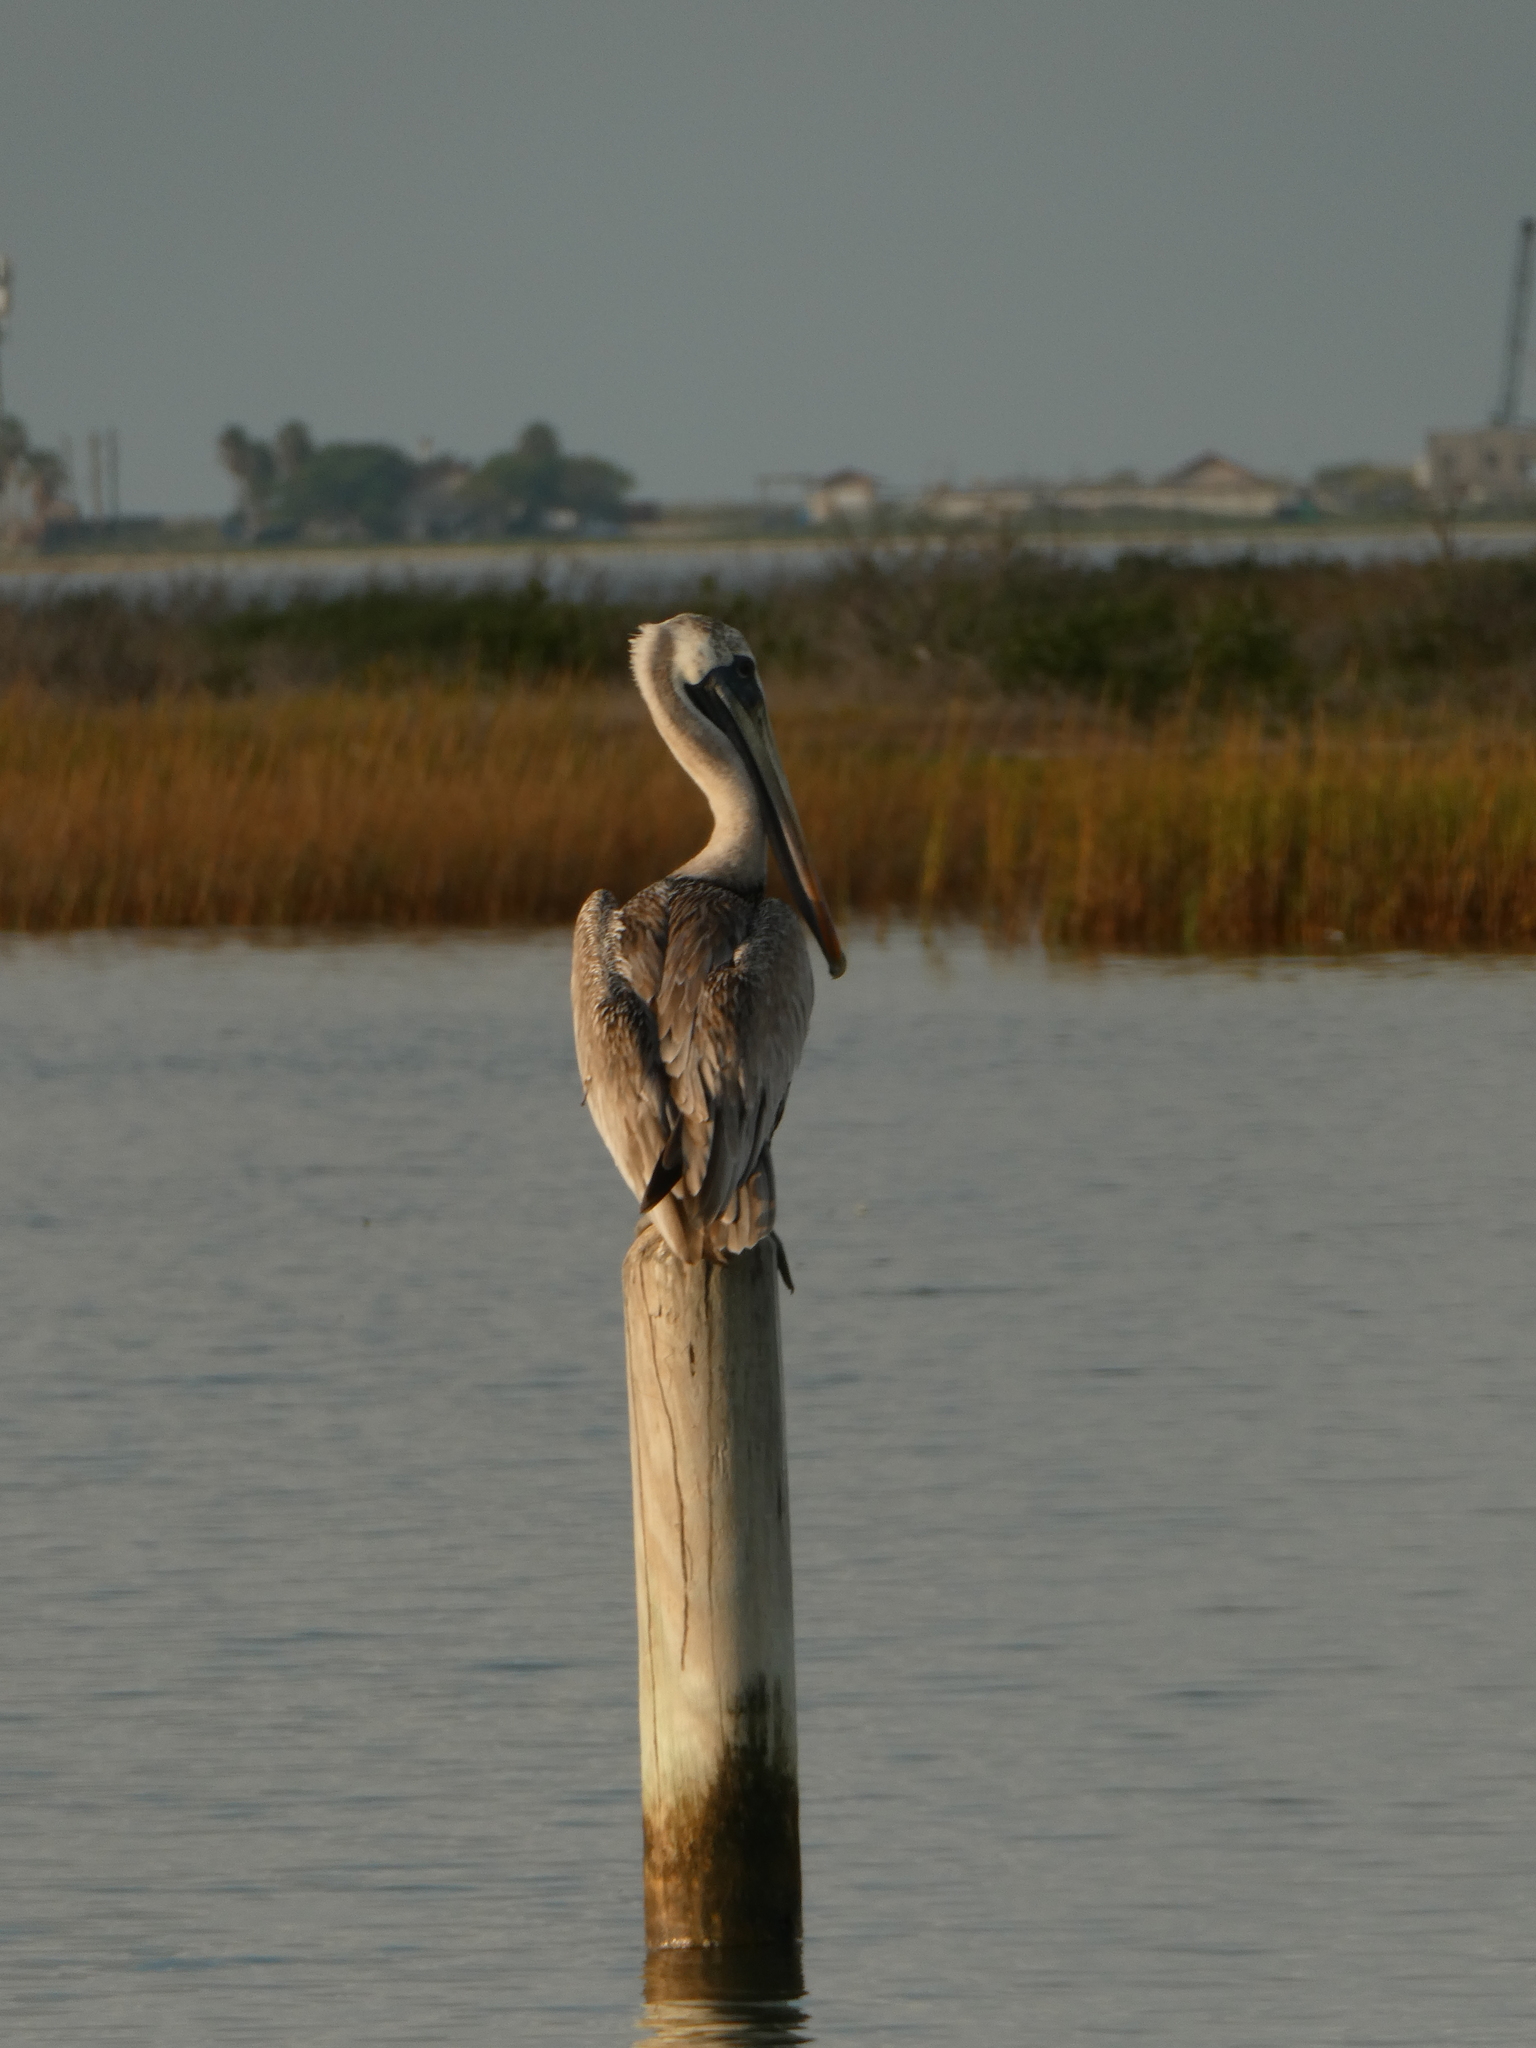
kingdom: Animalia
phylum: Chordata
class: Aves
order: Pelecaniformes
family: Pelecanidae
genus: Pelecanus
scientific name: Pelecanus occidentalis
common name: Brown pelican
